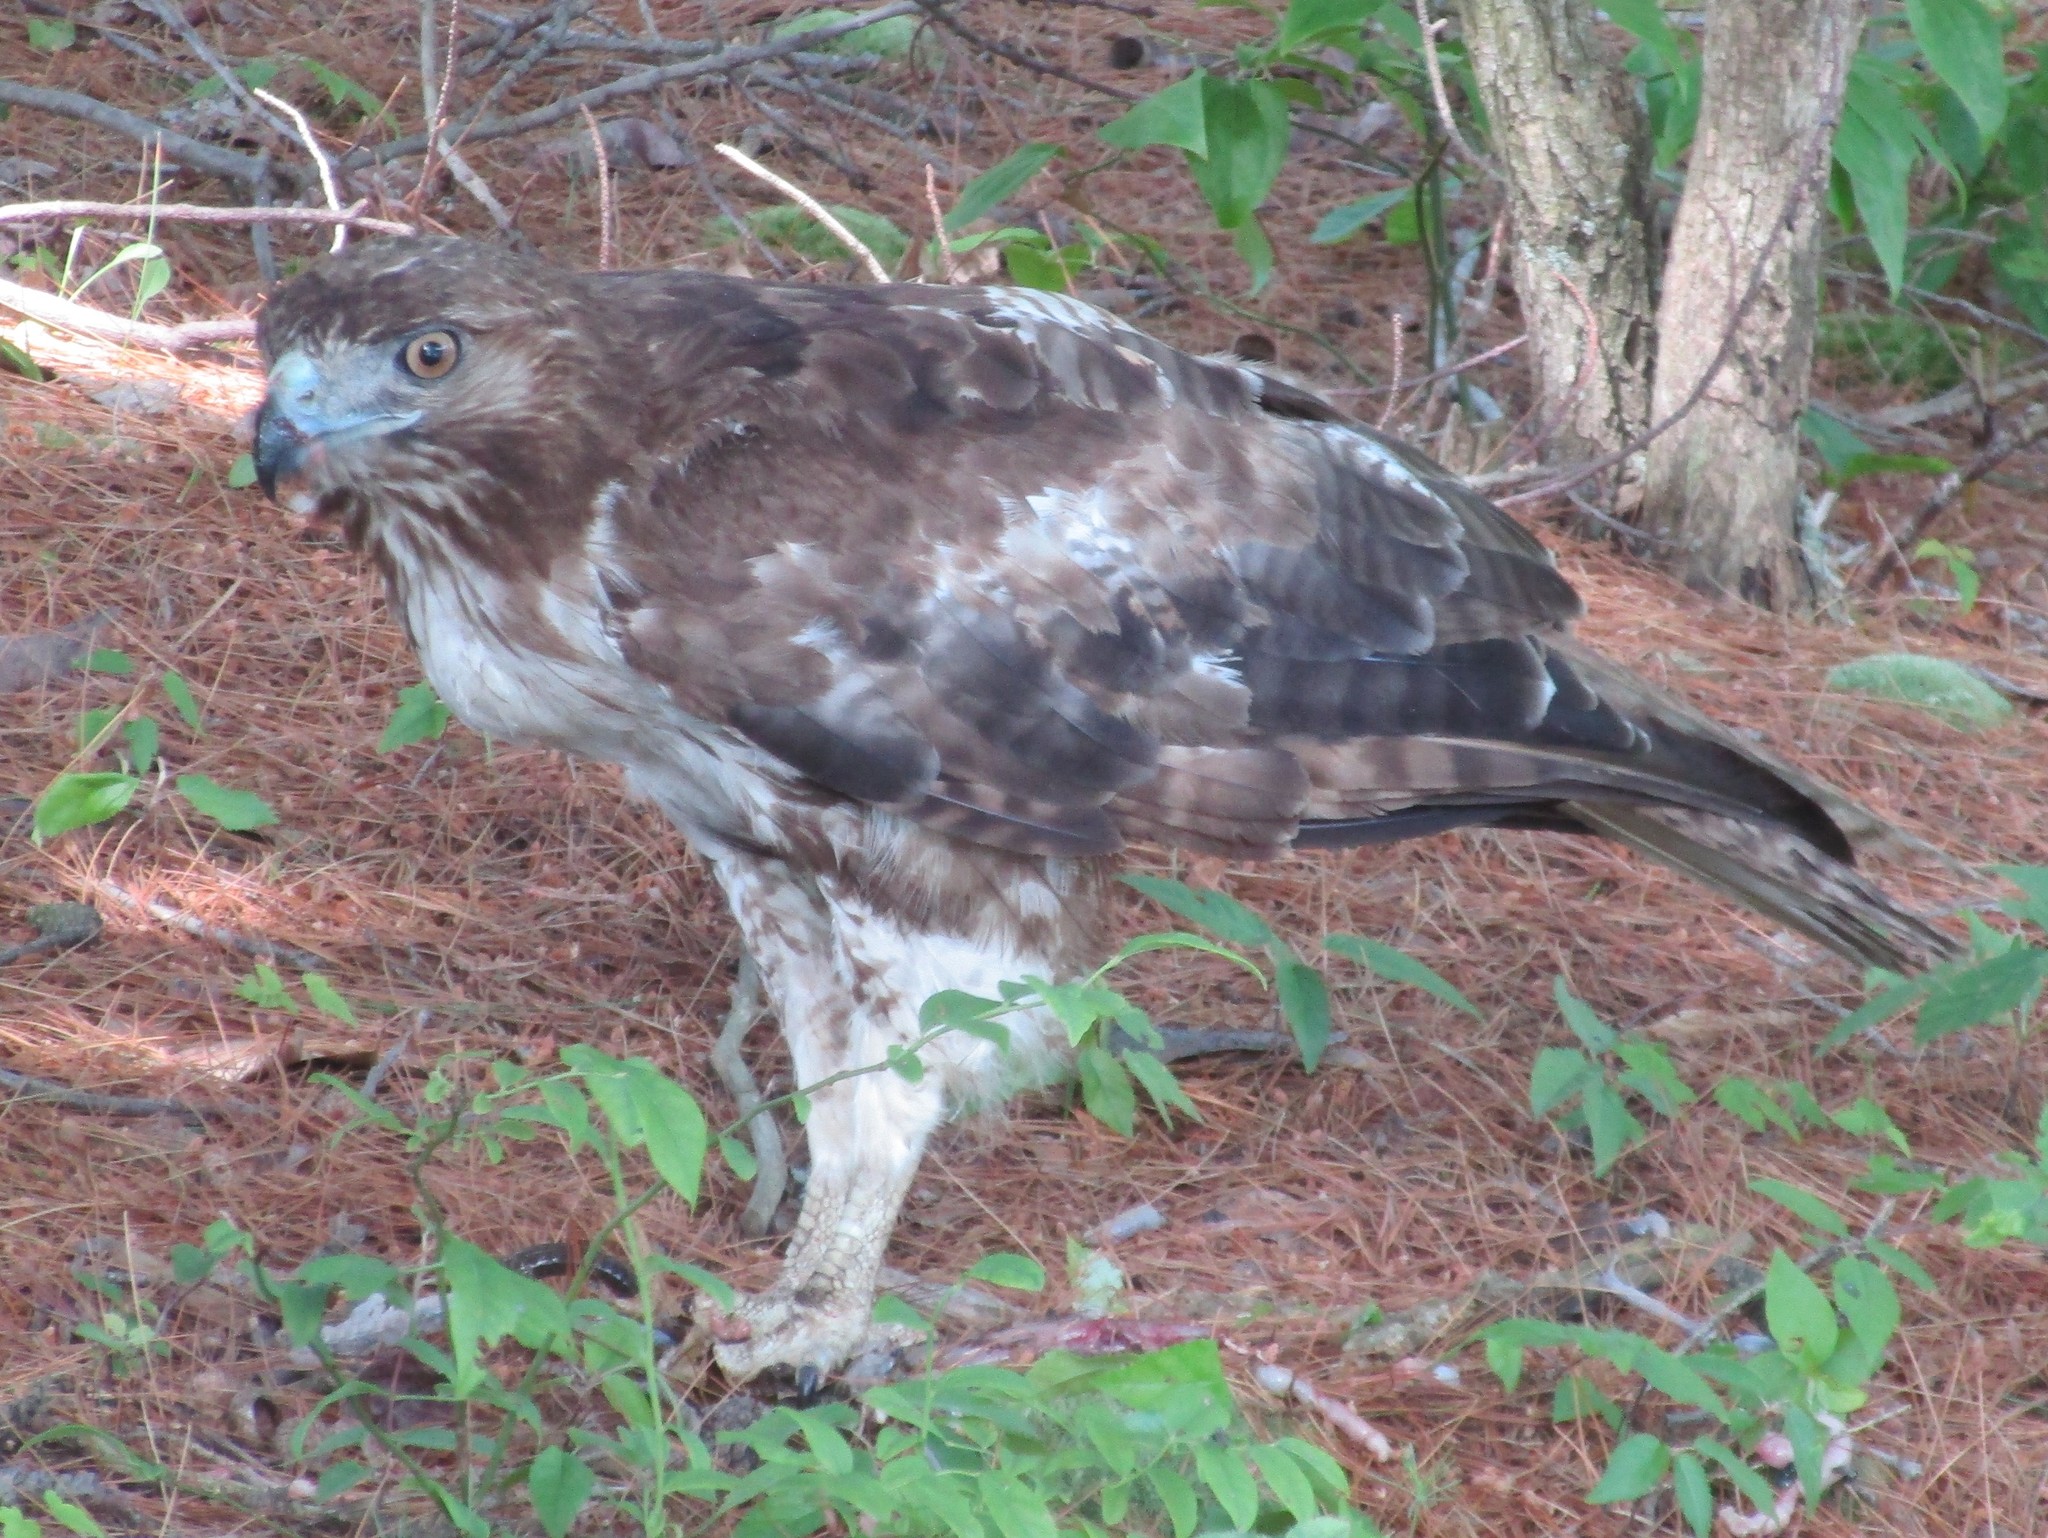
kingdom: Animalia
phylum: Chordata
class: Aves
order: Accipitriformes
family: Accipitridae
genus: Buteo
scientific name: Buteo jamaicensis
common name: Red-tailed hawk
